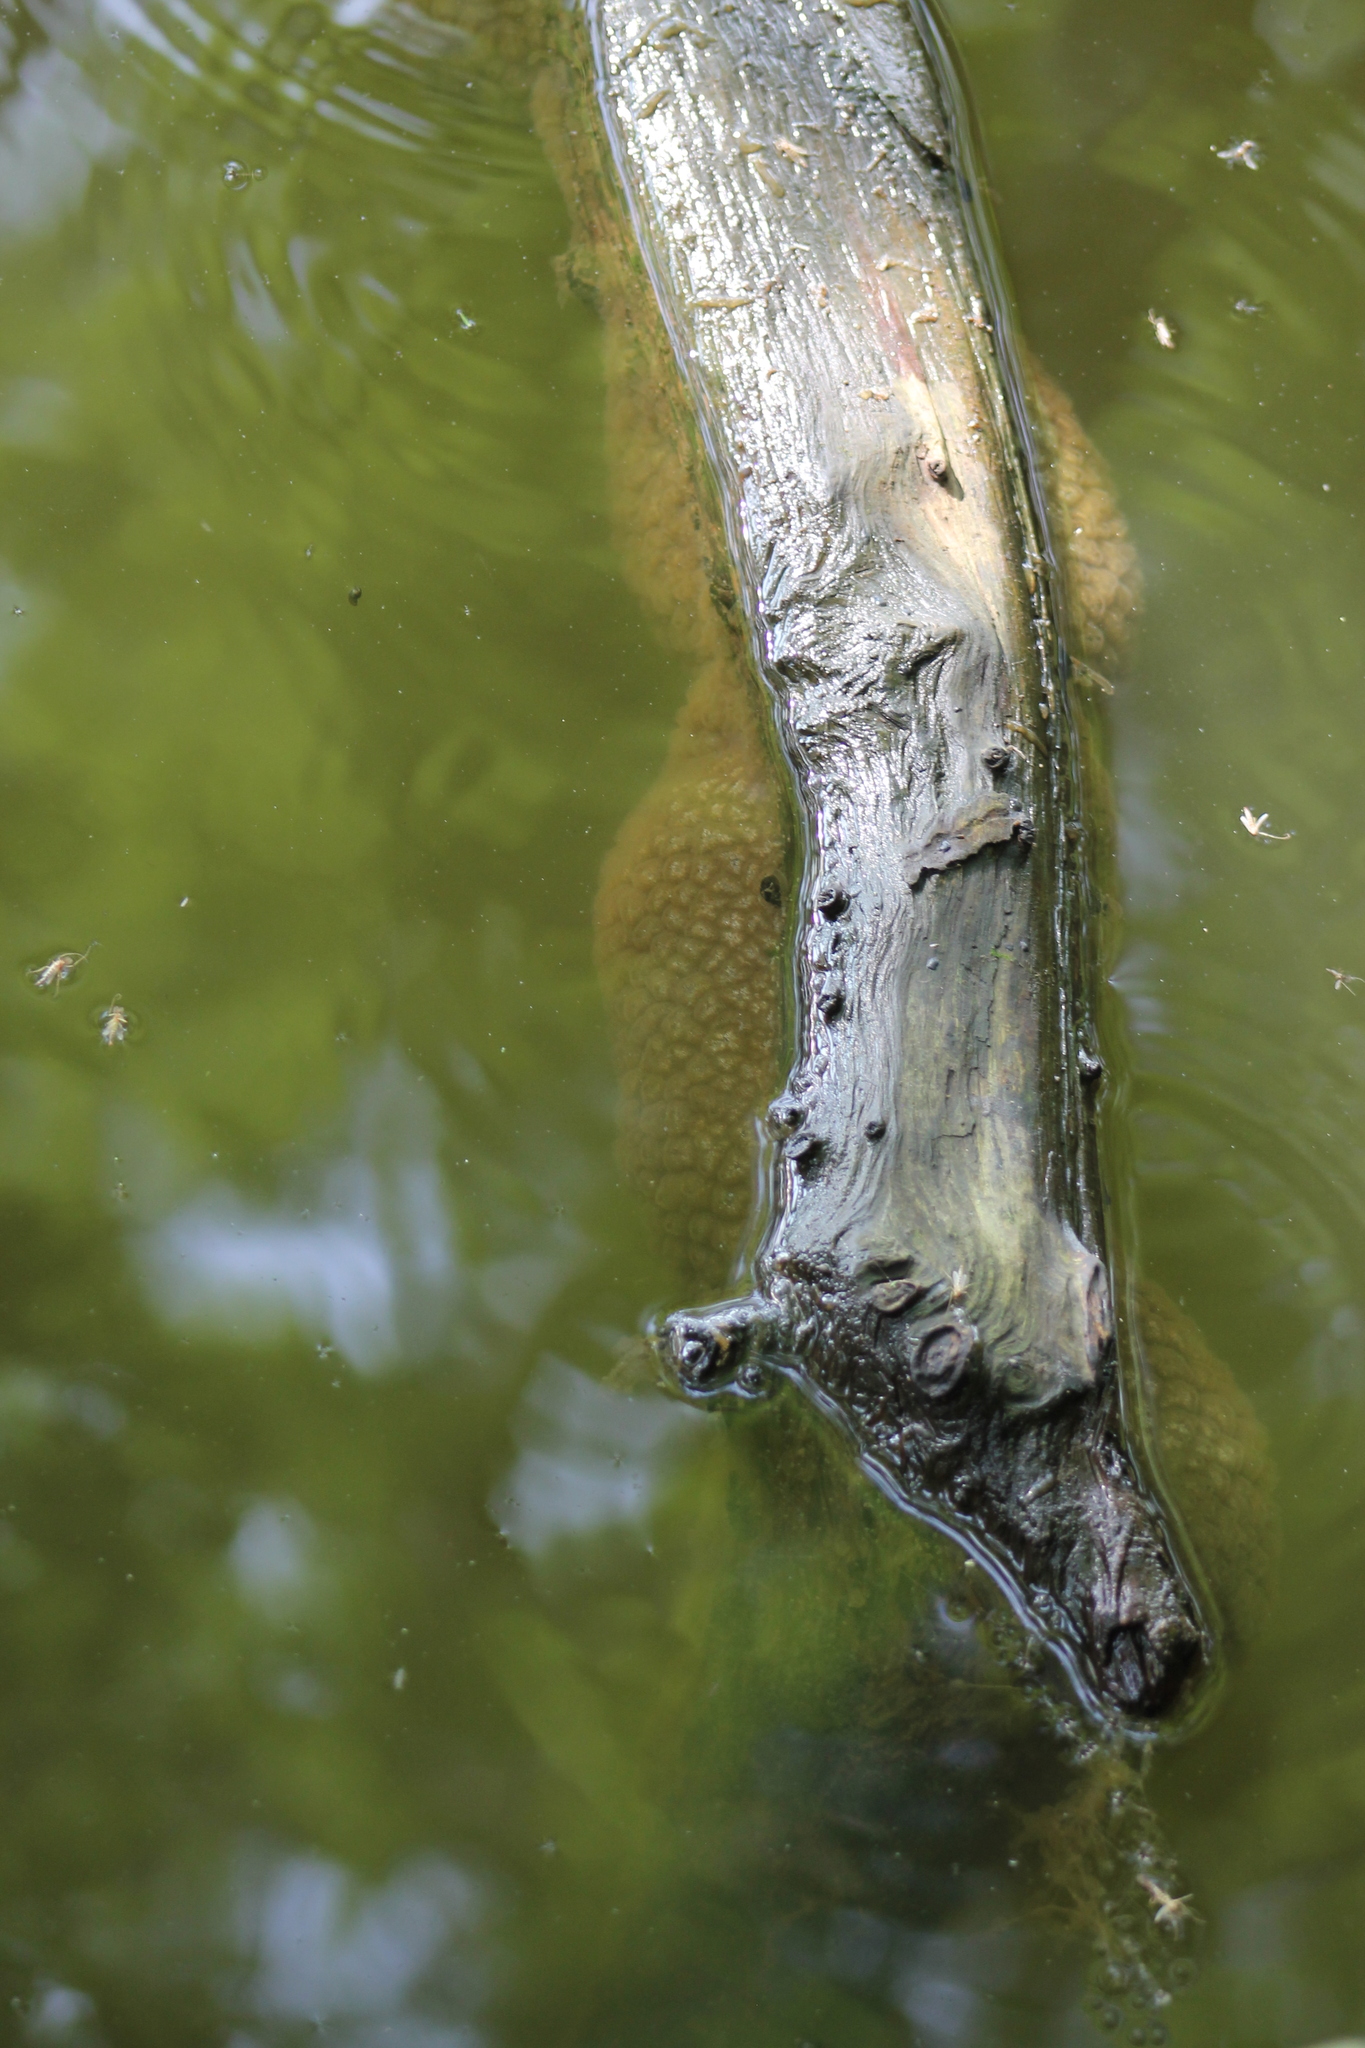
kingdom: Animalia
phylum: Bryozoa
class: Phylactolaemata
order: Plumatellida
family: Pectinatellidae
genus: Pectinatella
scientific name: Pectinatella magnifica
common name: Magnificent bryozoan
